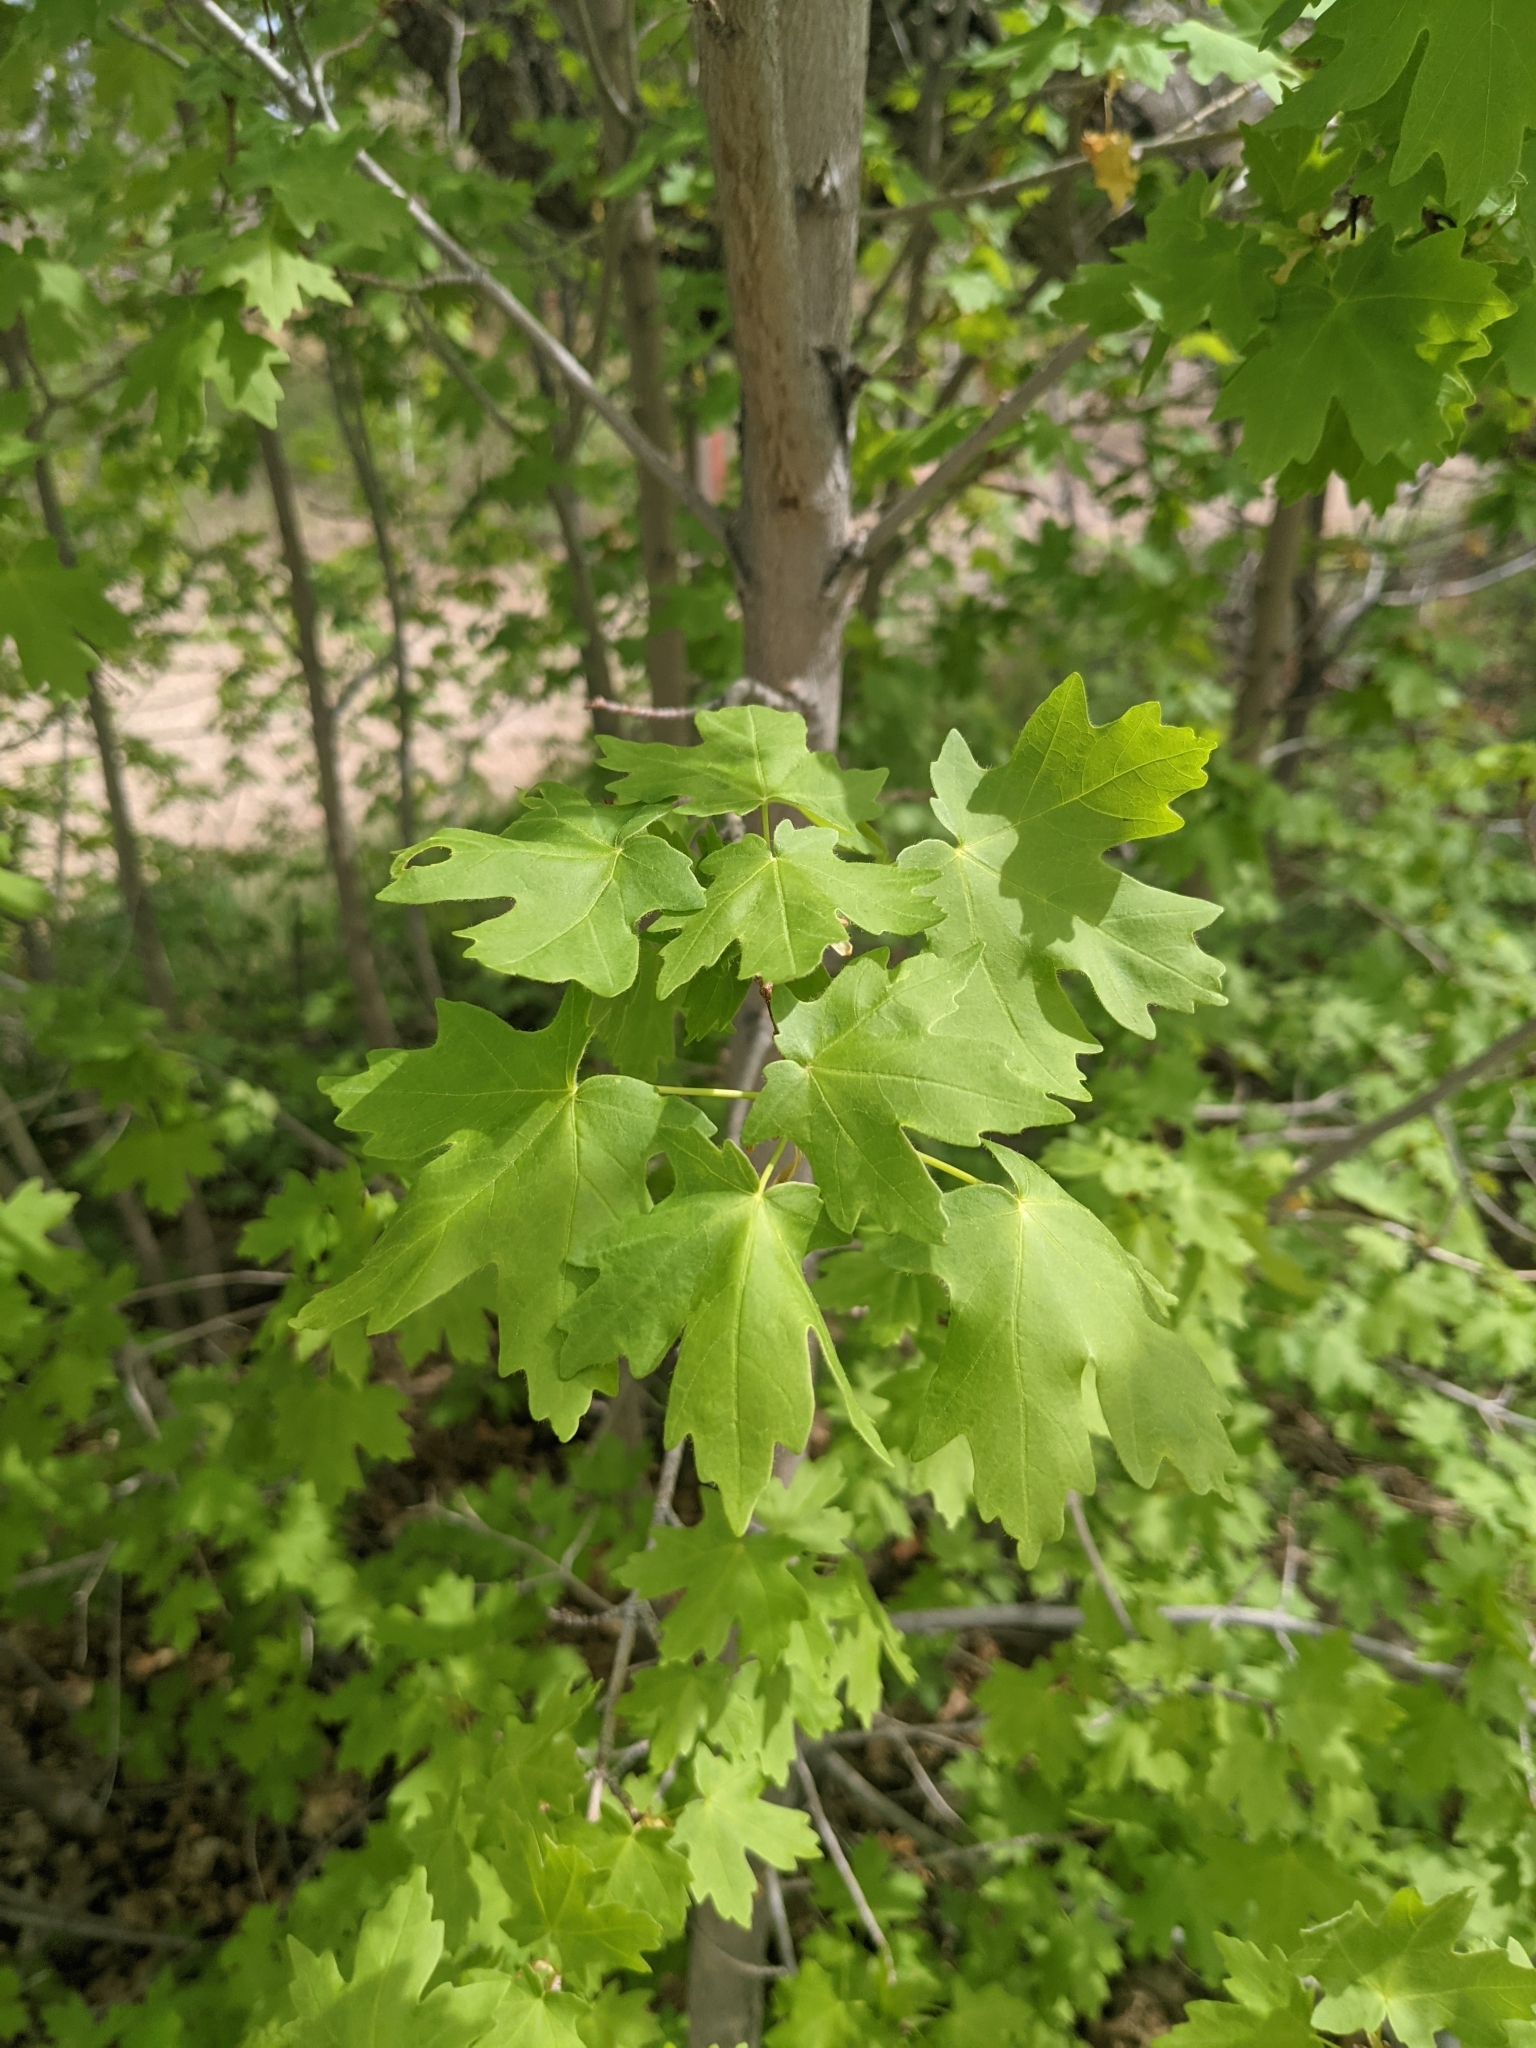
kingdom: Plantae
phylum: Tracheophyta
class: Magnoliopsida
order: Sapindales
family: Sapindaceae
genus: Acer
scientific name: Acer grandidentatum
